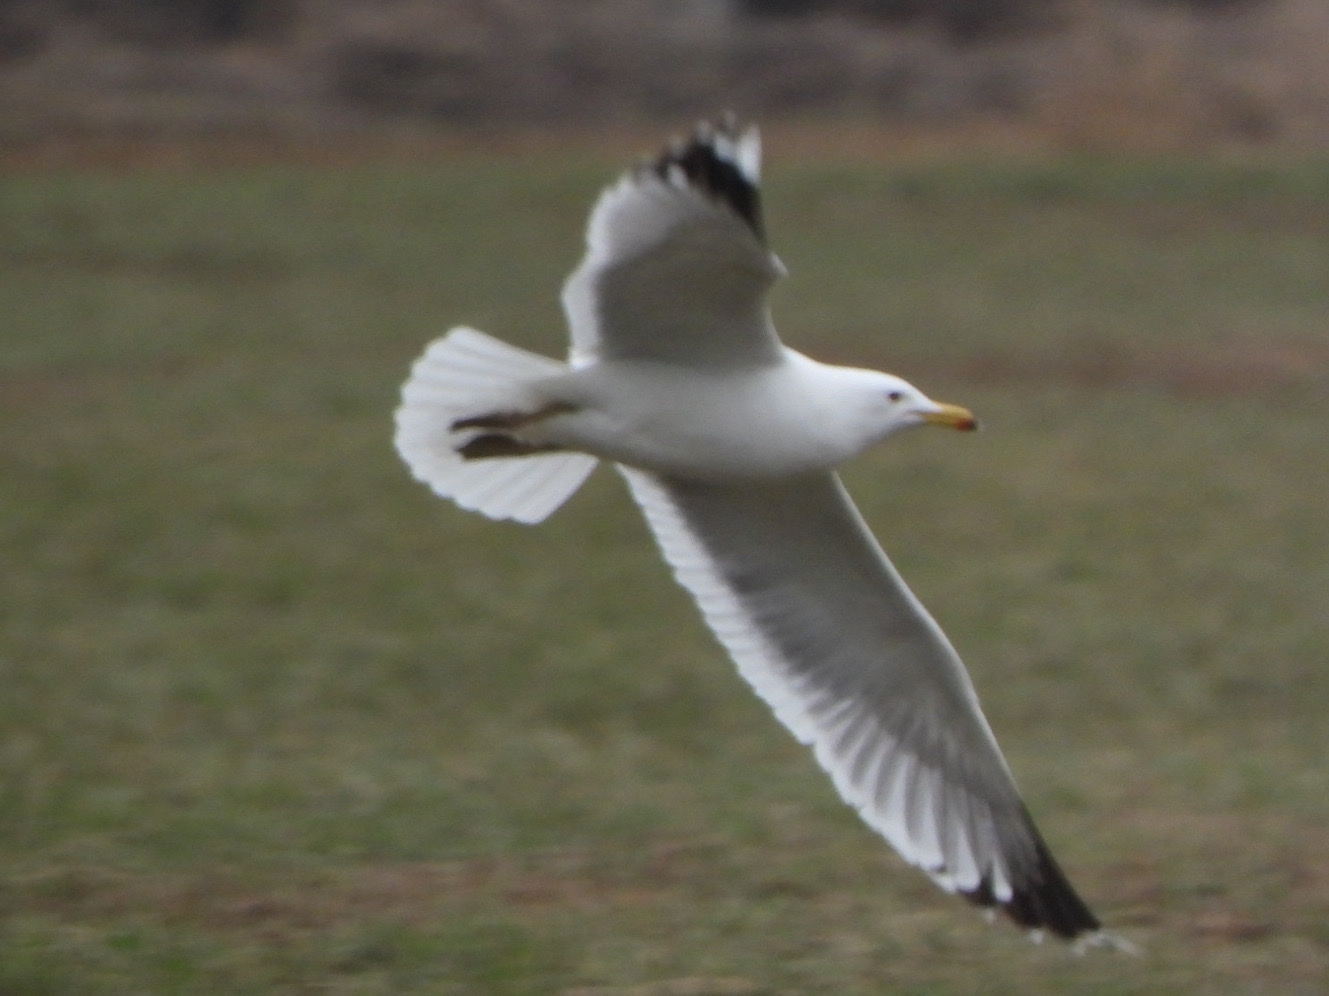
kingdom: Animalia
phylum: Chordata
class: Aves
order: Charadriiformes
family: Laridae
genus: Larus
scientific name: Larus californicus
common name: California gull
